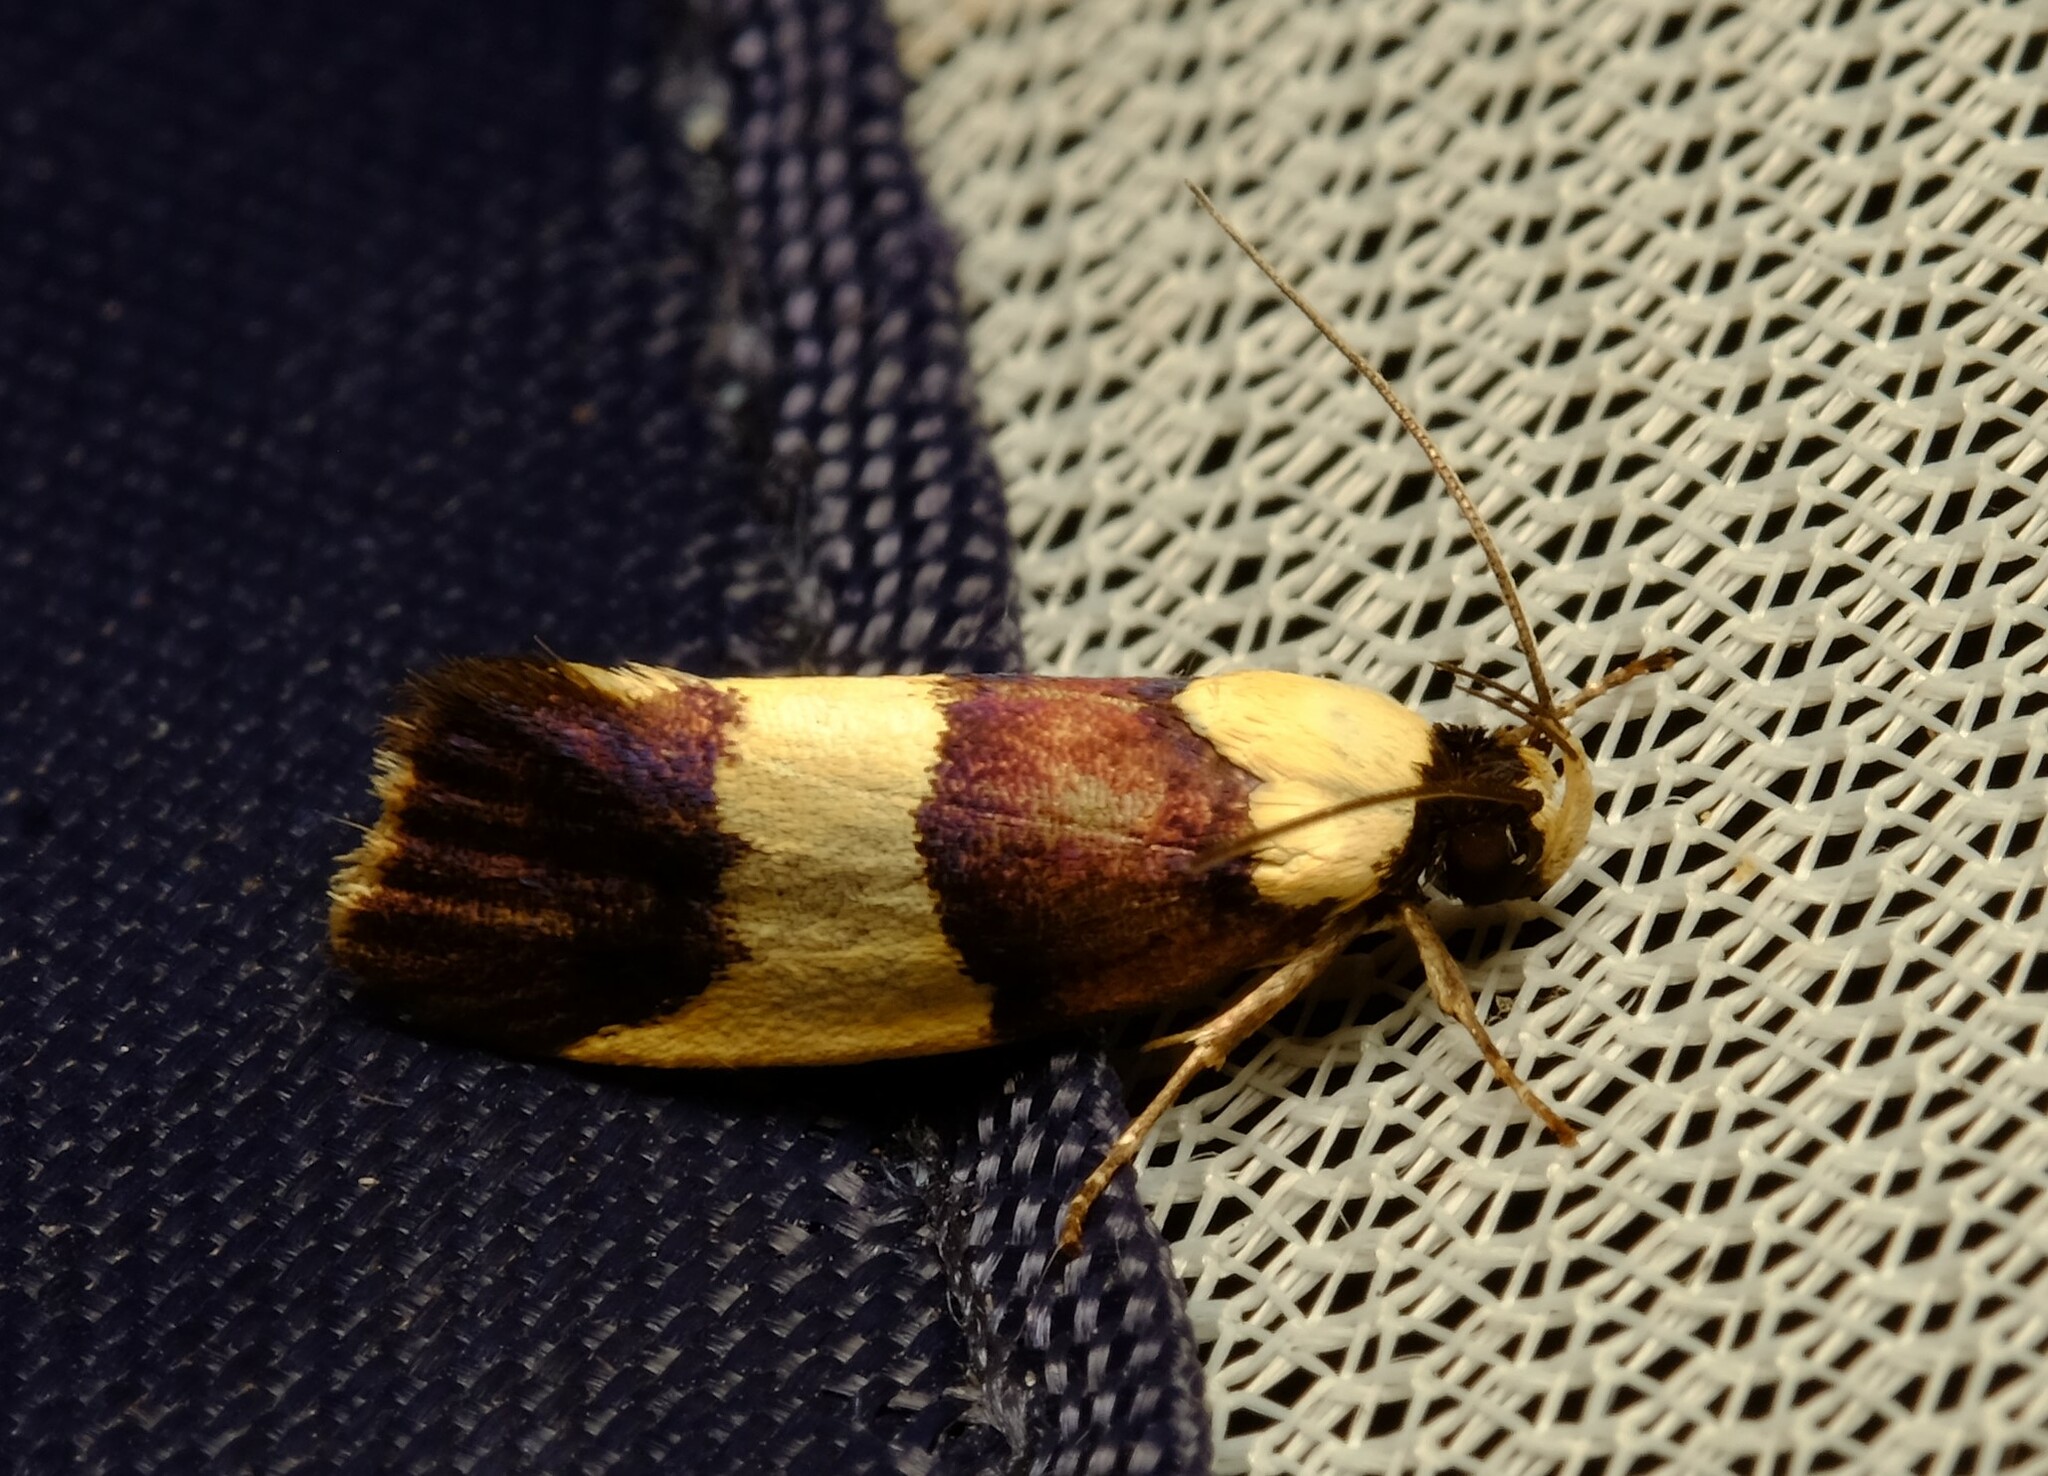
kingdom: Animalia
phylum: Arthropoda
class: Insecta
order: Lepidoptera
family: Xyloryctidae
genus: Telecrates
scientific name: Telecrates laetiorella
